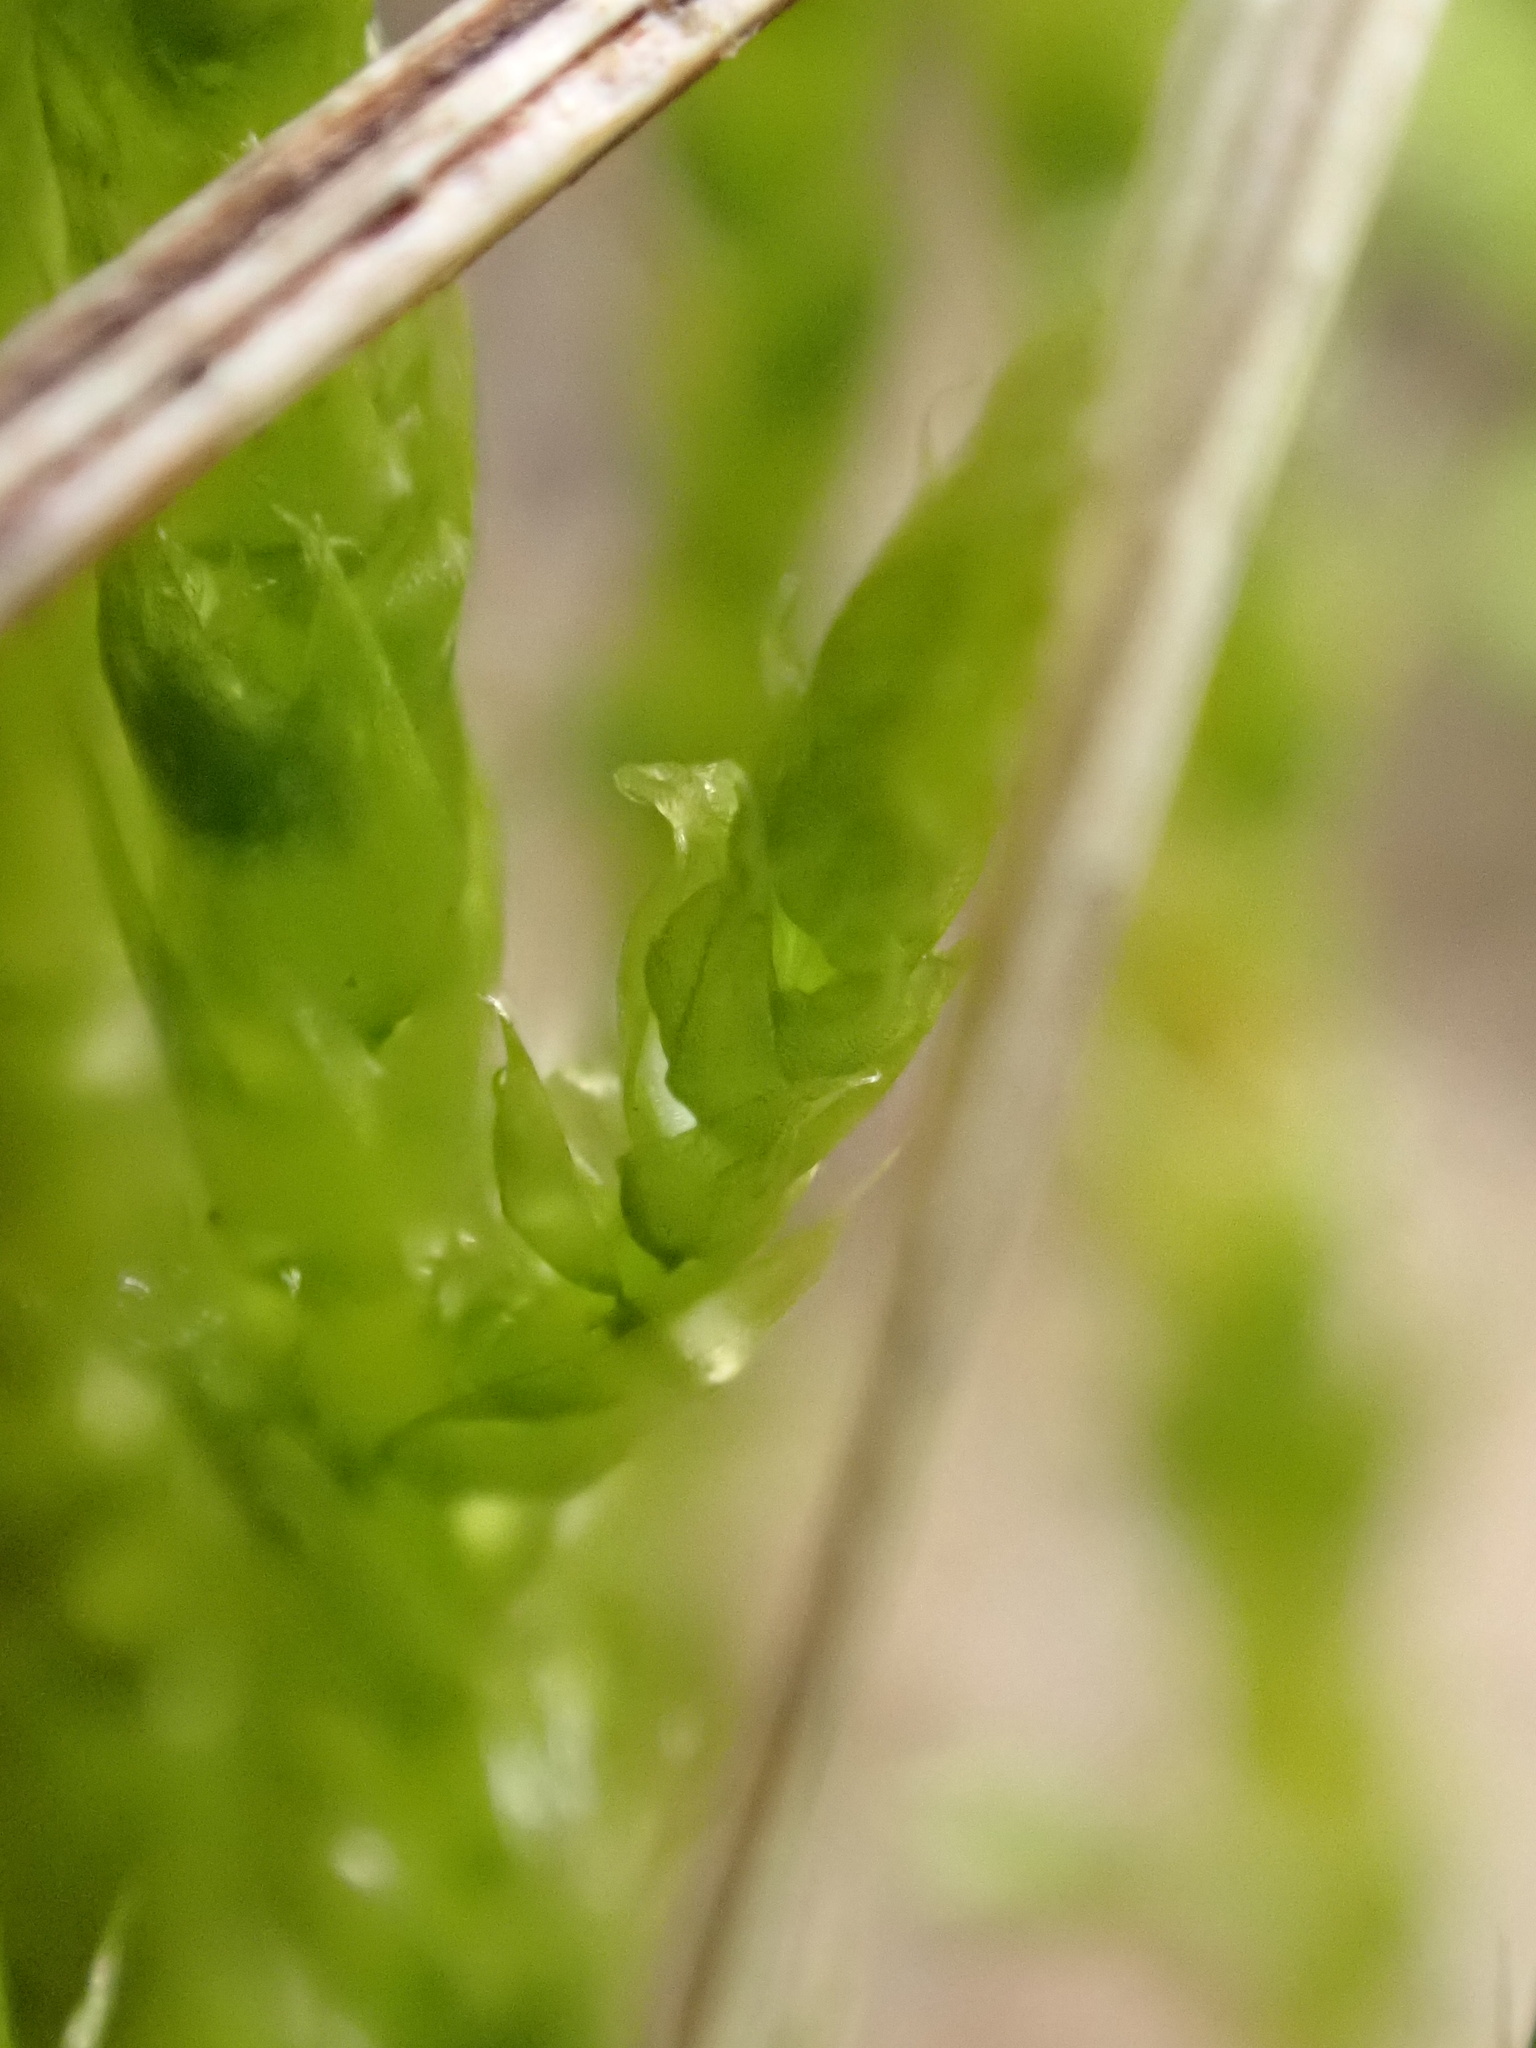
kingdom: Plantae
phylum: Bryophyta
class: Bryopsida
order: Hypnales
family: Brachytheciaceae
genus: Brachythecium
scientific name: Brachythecium albicans
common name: Whitish ragged moss
